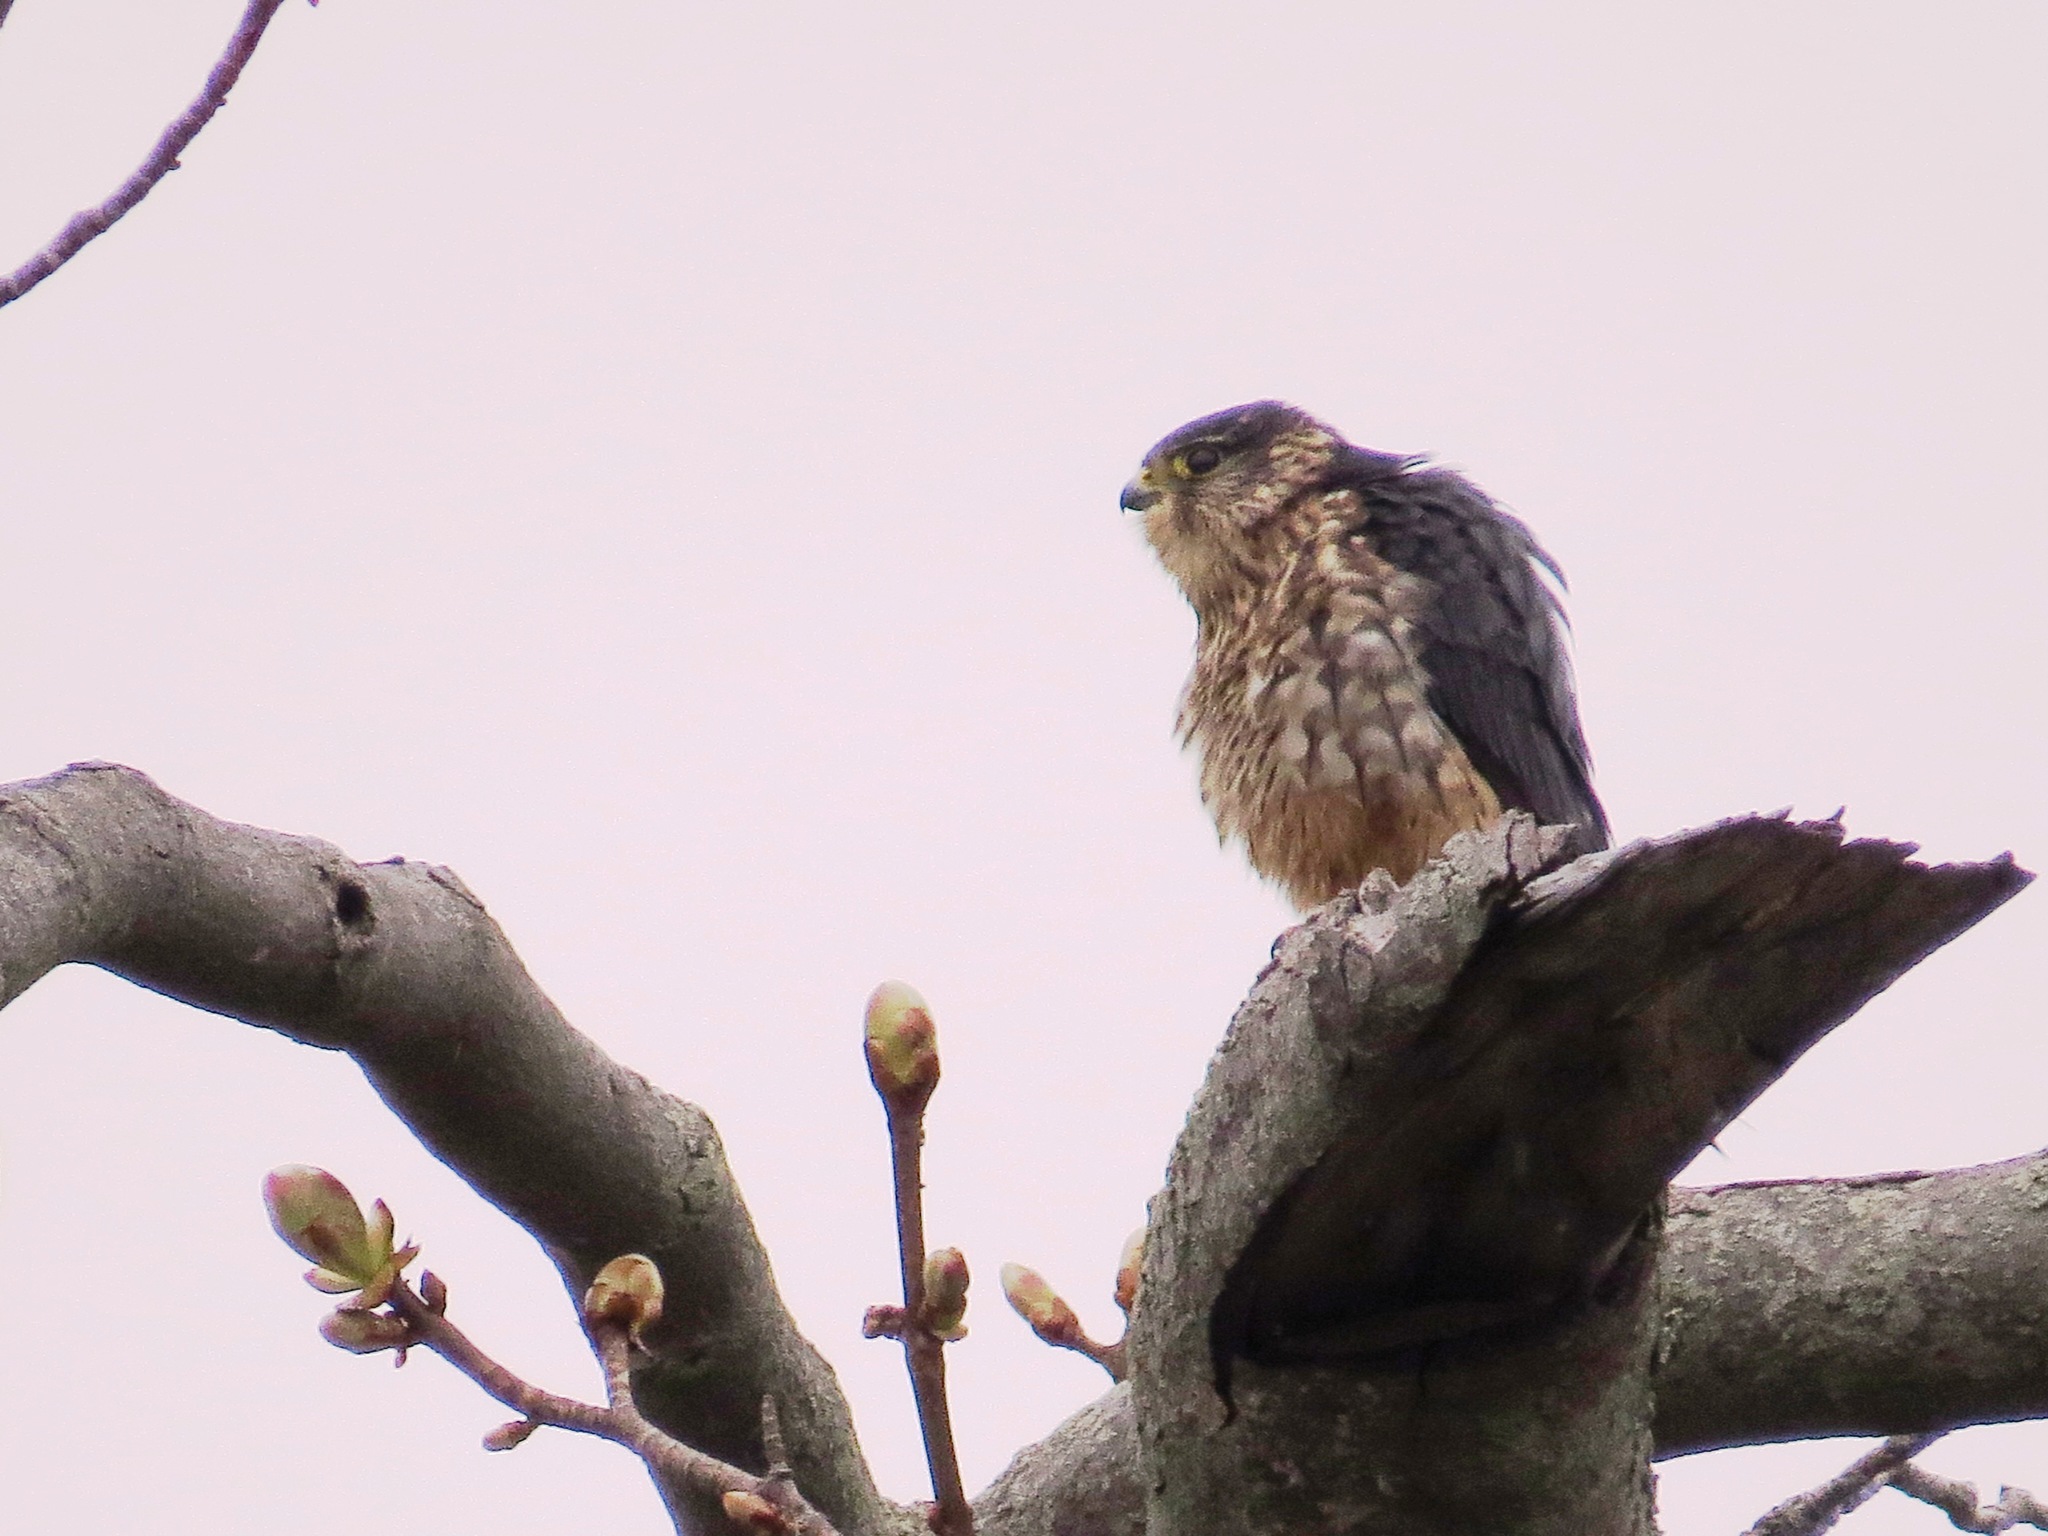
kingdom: Animalia
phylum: Chordata
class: Aves
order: Falconiformes
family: Falconidae
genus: Falco
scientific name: Falco columbarius
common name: Merlin
